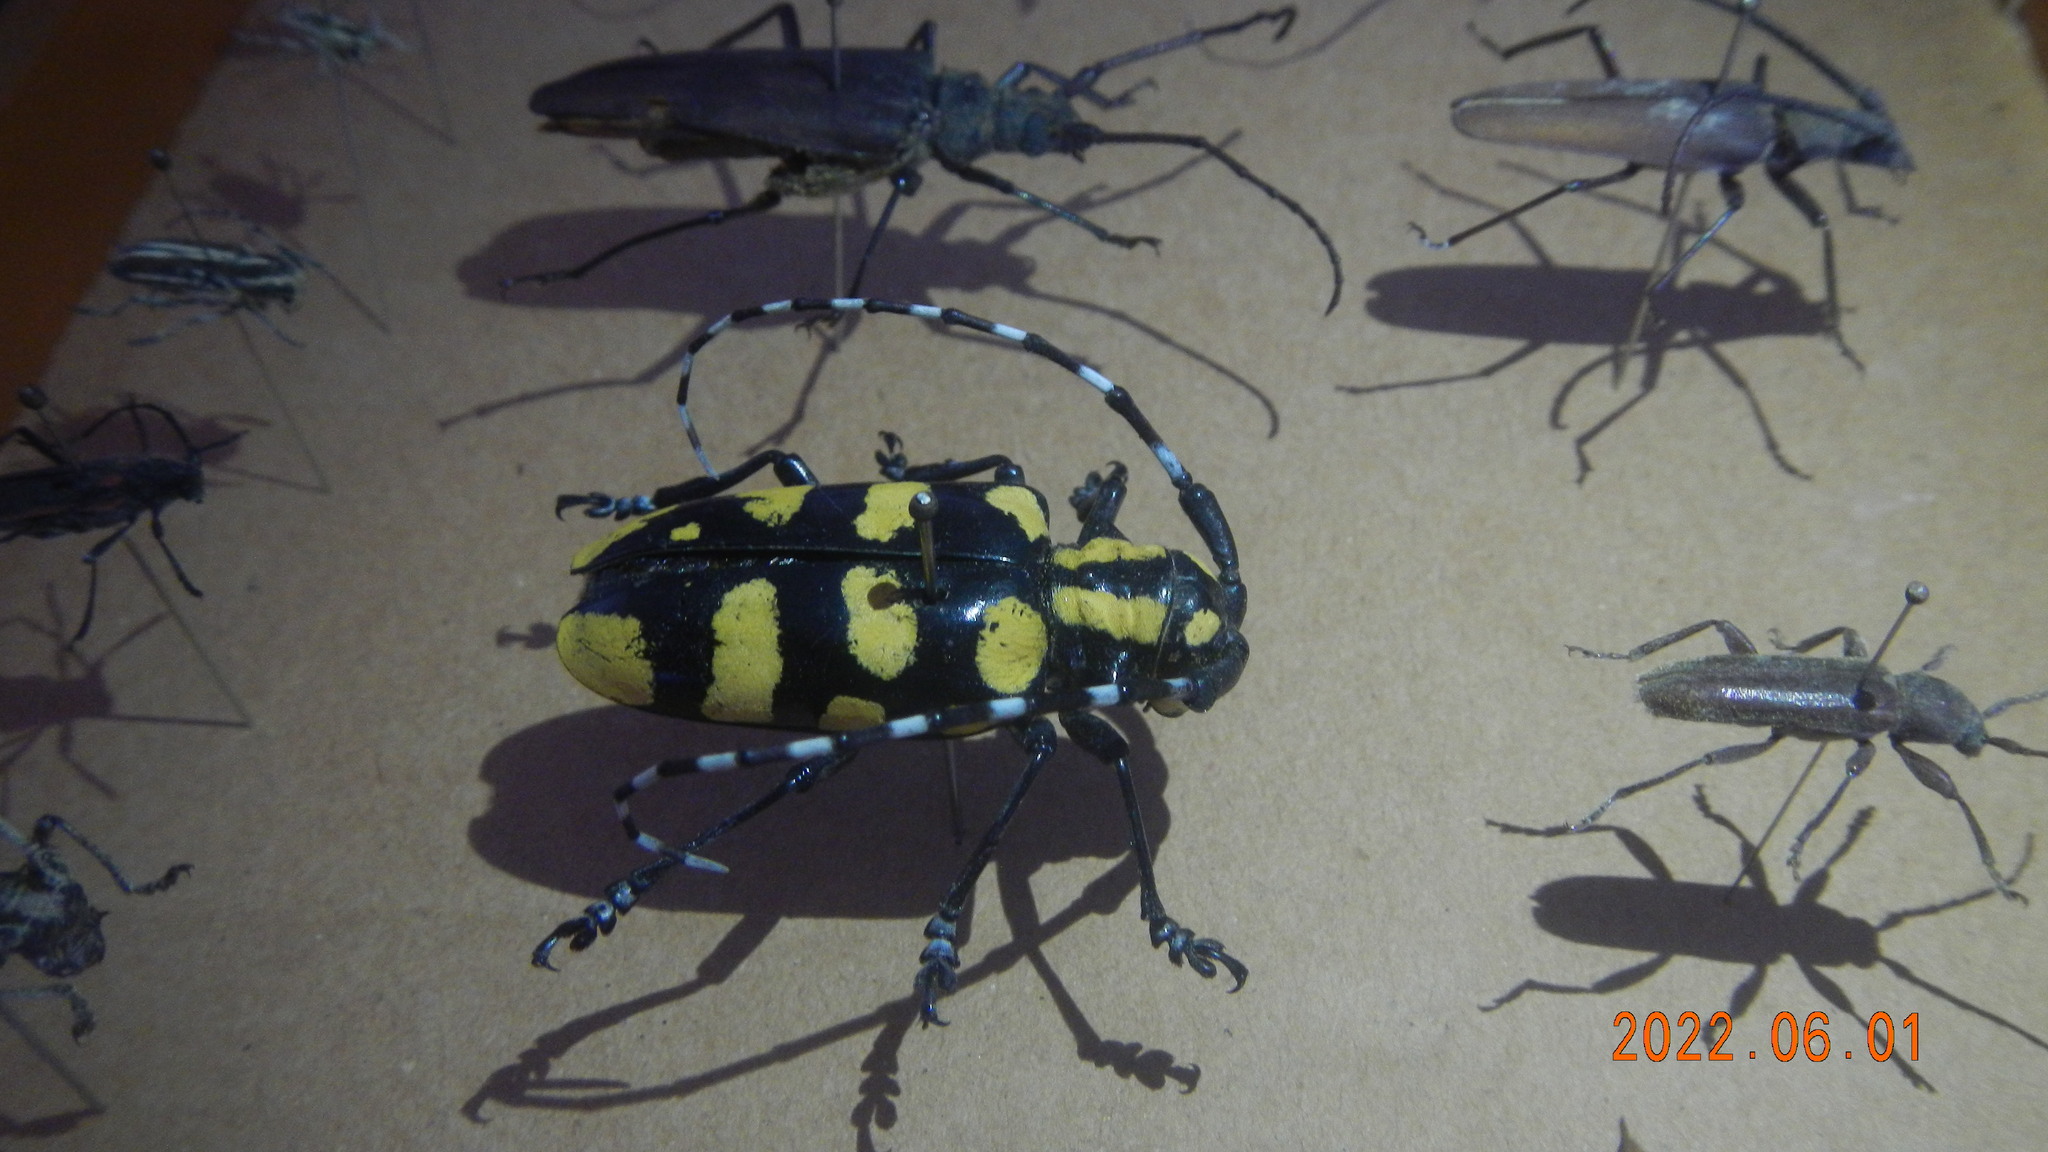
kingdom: Animalia
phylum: Arthropoda
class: Insecta
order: Coleoptera
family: Cerambycidae
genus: Anoplophora
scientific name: Anoplophora horsfieldii
